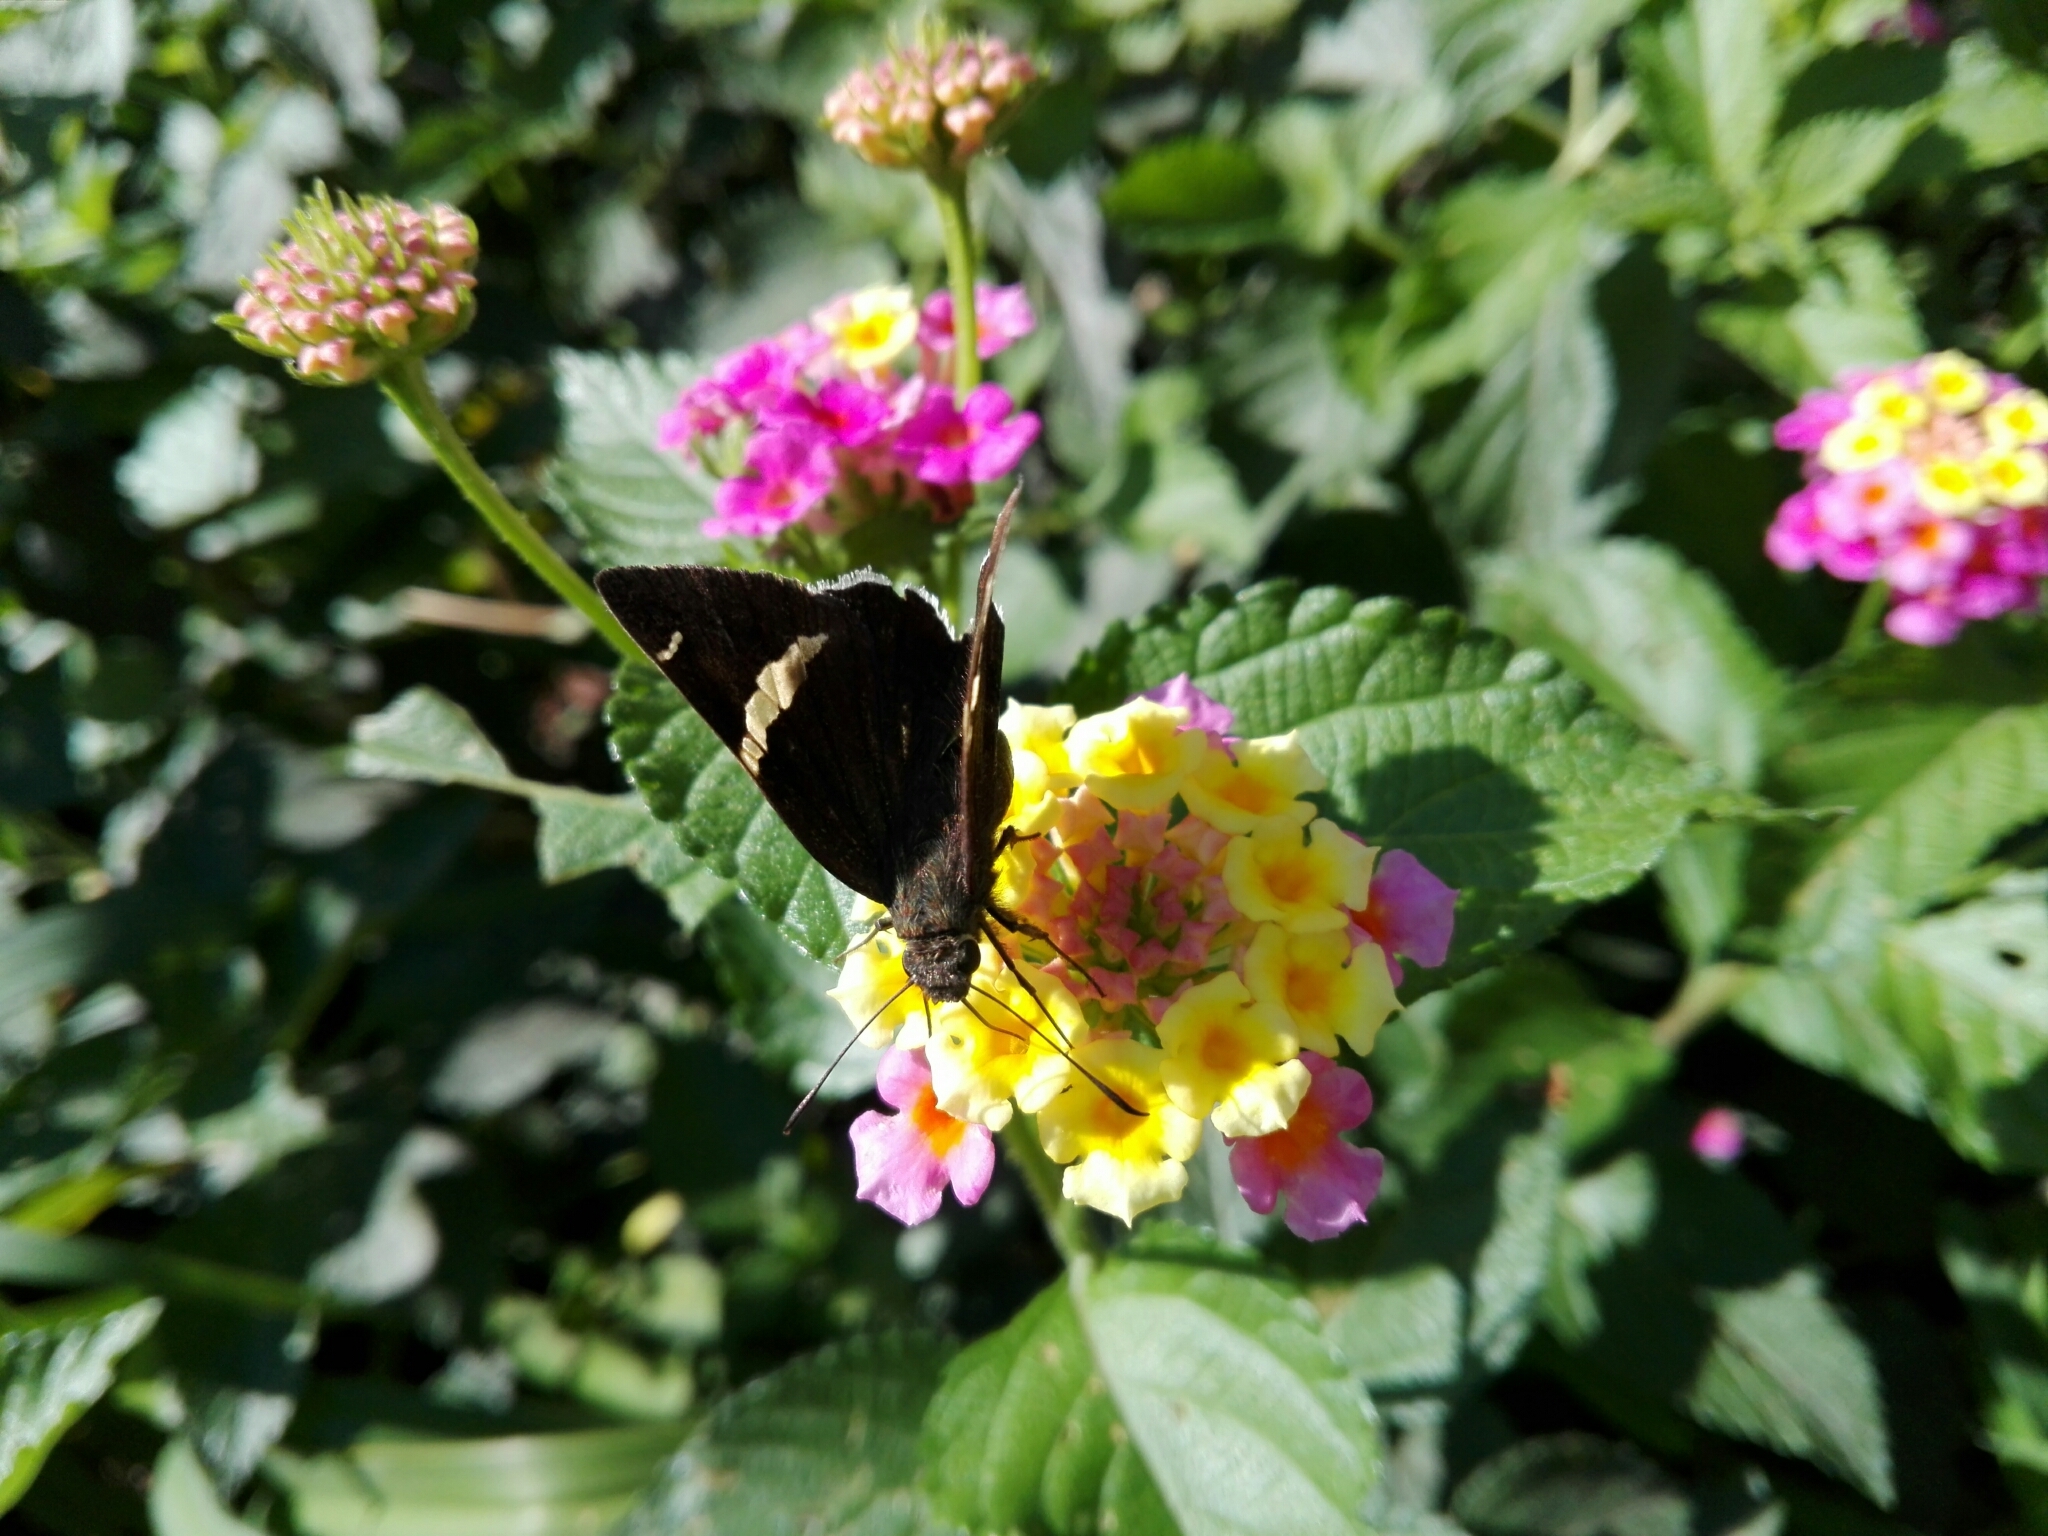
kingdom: Animalia
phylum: Arthropoda
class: Insecta
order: Lepidoptera
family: Hesperiidae
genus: Thorybes
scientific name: Thorybes cincta
